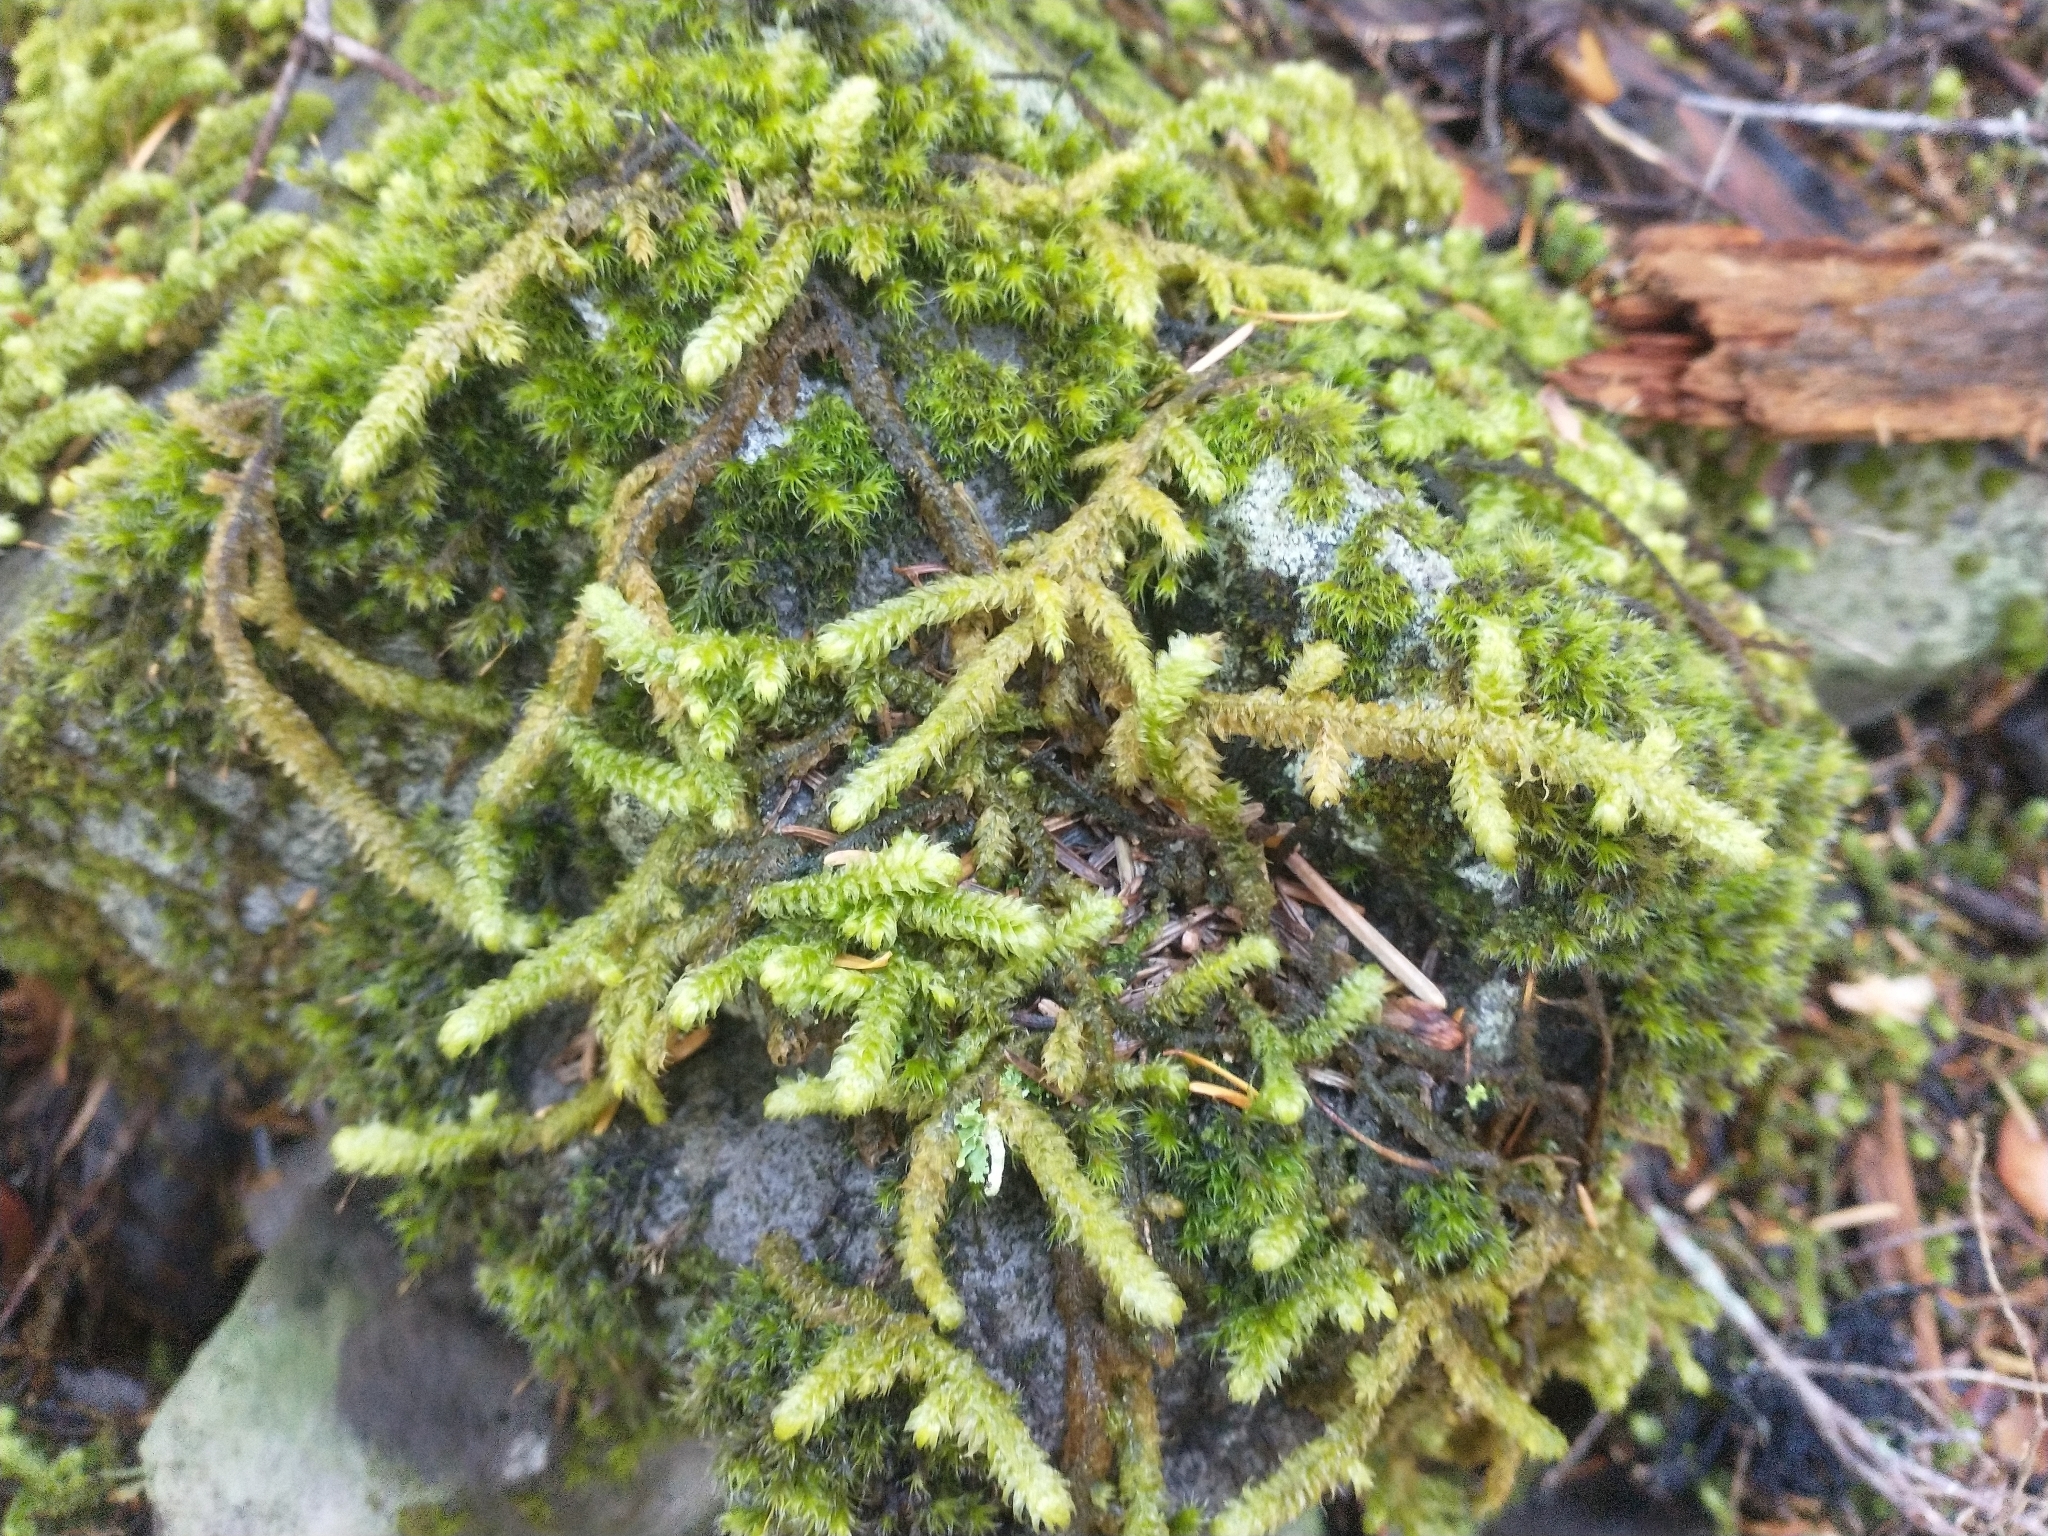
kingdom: Plantae
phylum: Bryophyta
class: Bryopsida
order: Hypnales
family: Hylocomiaceae
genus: Rhytidiopsis
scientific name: Rhytidiopsis robusta
